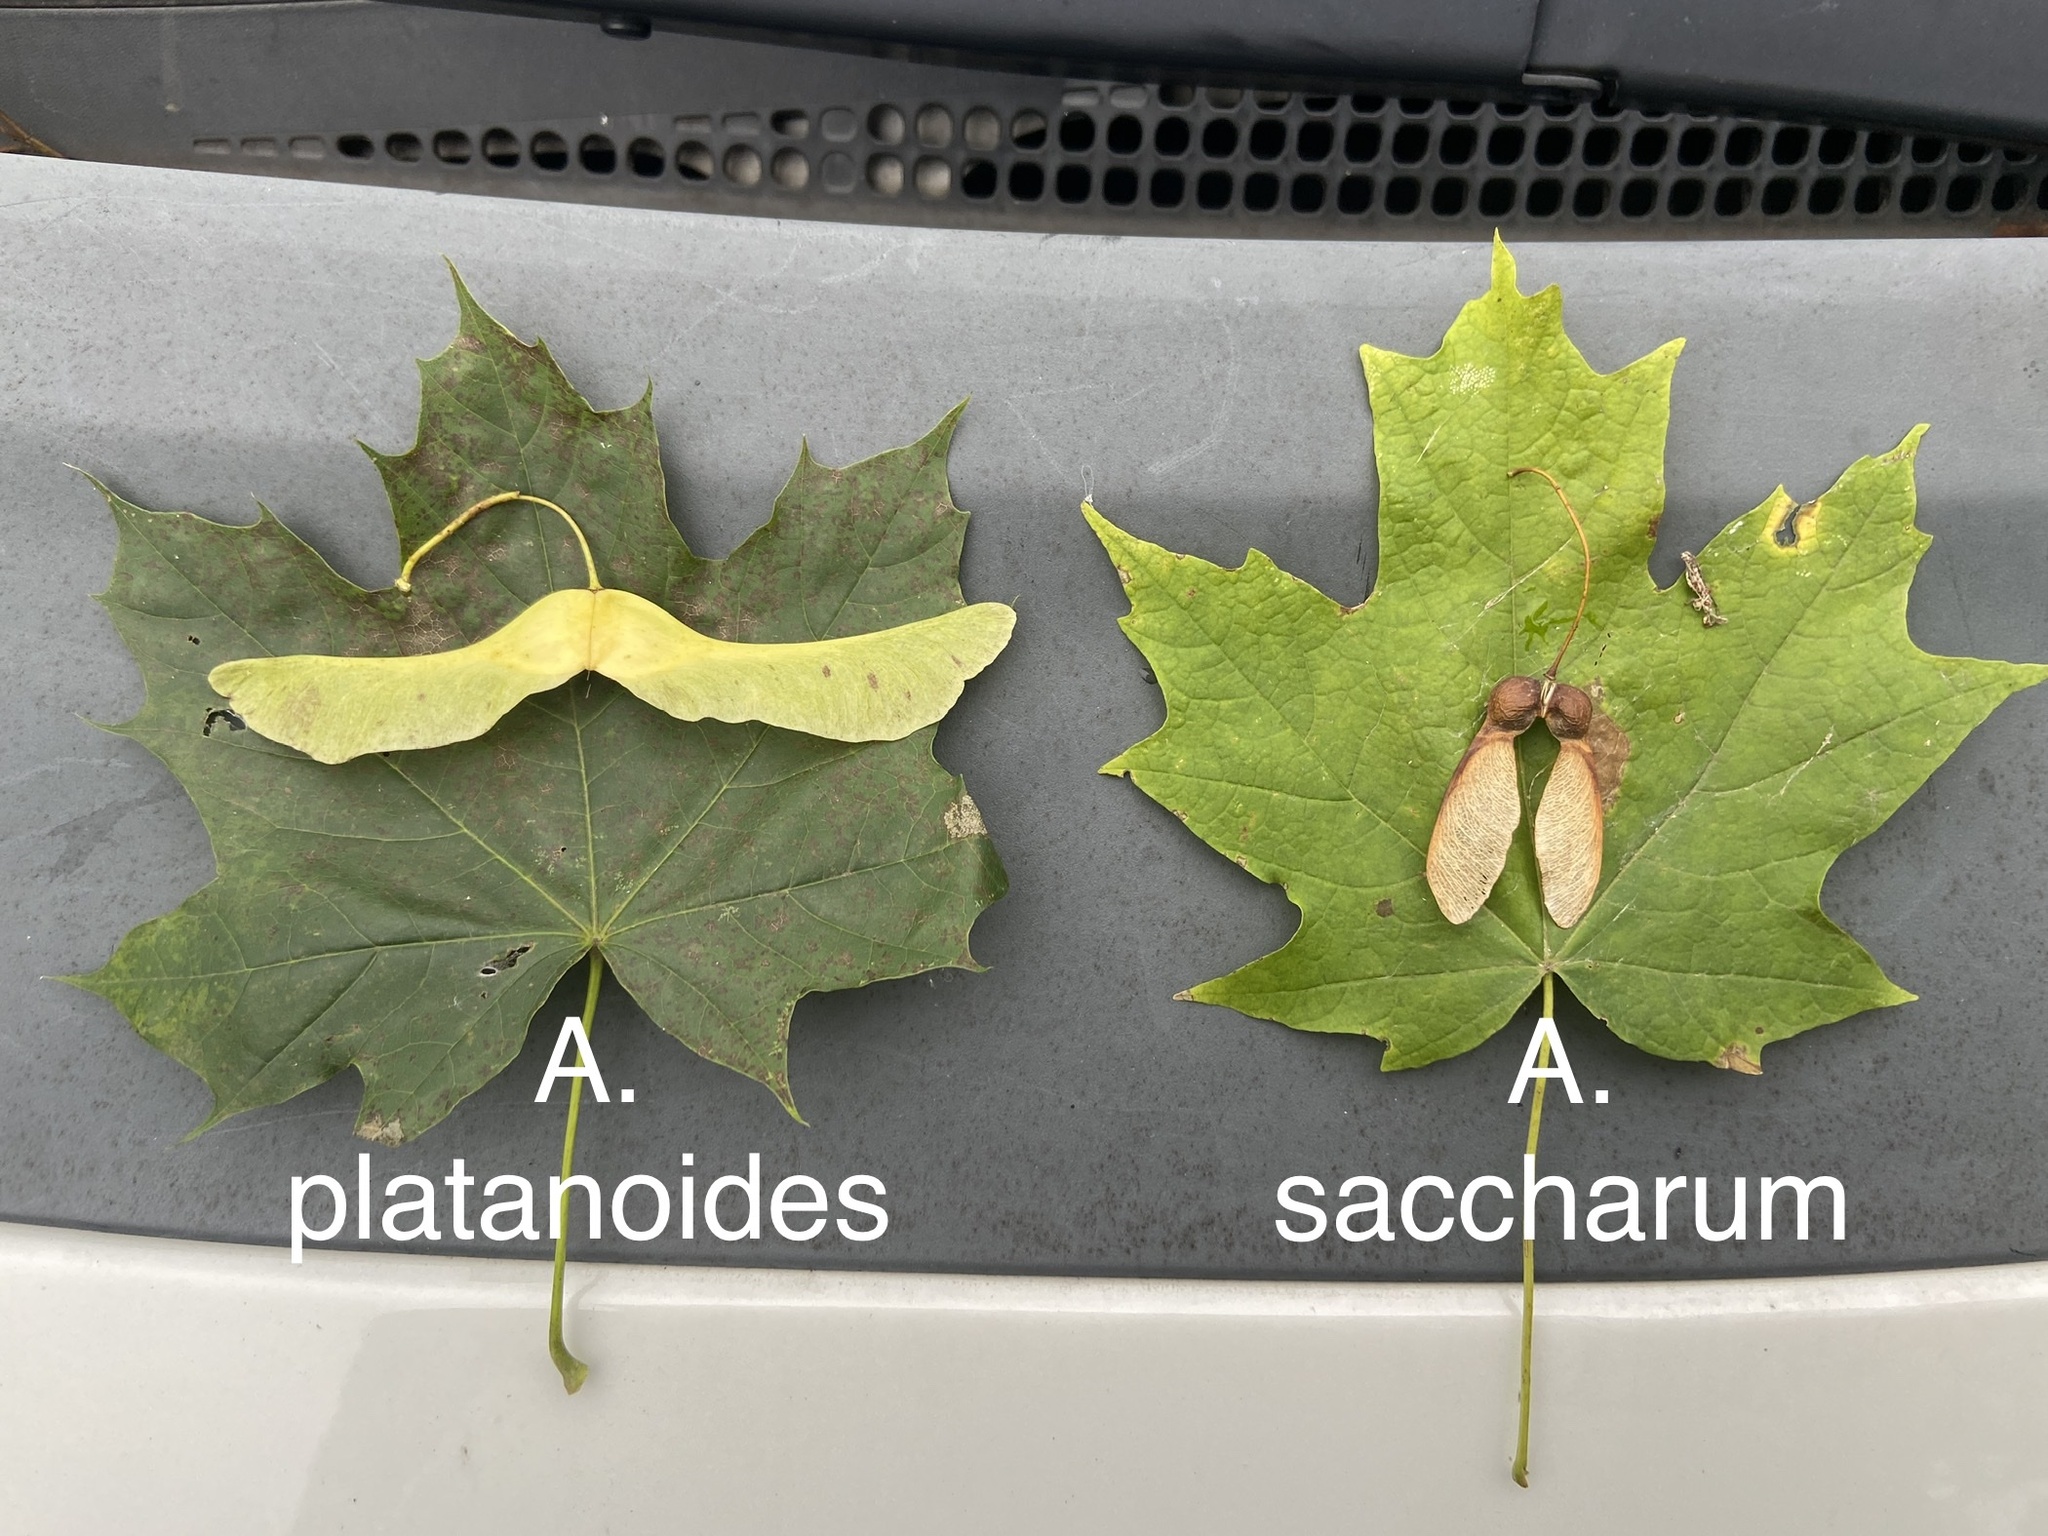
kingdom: Plantae
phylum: Tracheophyta
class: Magnoliopsida
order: Sapindales
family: Sapindaceae
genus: Acer
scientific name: Acer saccharum
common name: Sugar maple
